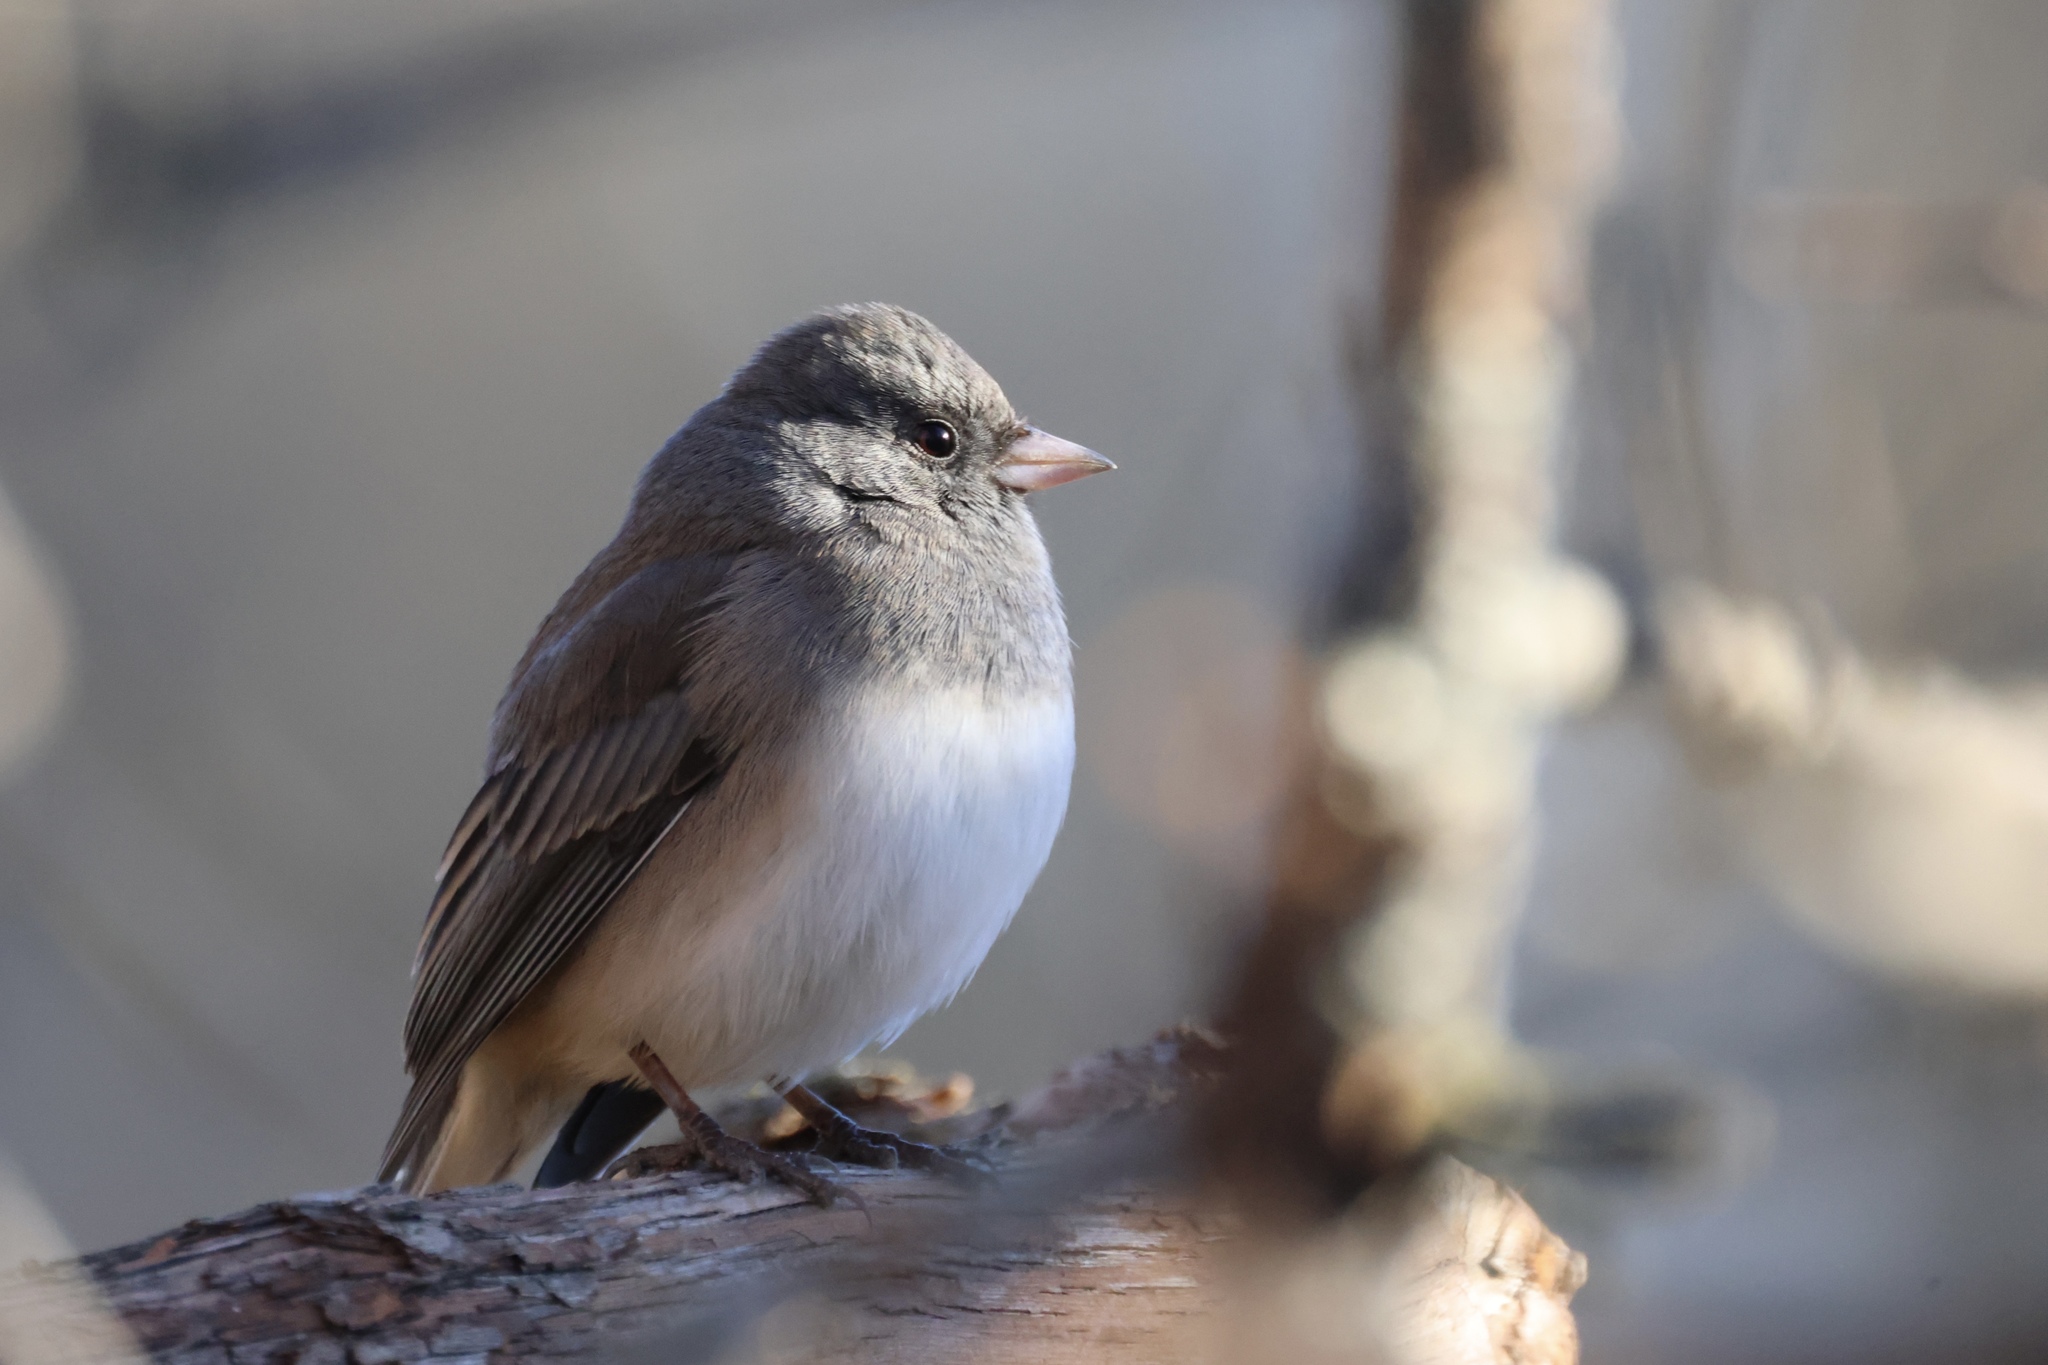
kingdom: Animalia
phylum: Chordata
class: Aves
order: Passeriformes
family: Passerellidae
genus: Junco
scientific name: Junco hyemalis
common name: Dark-eyed junco
